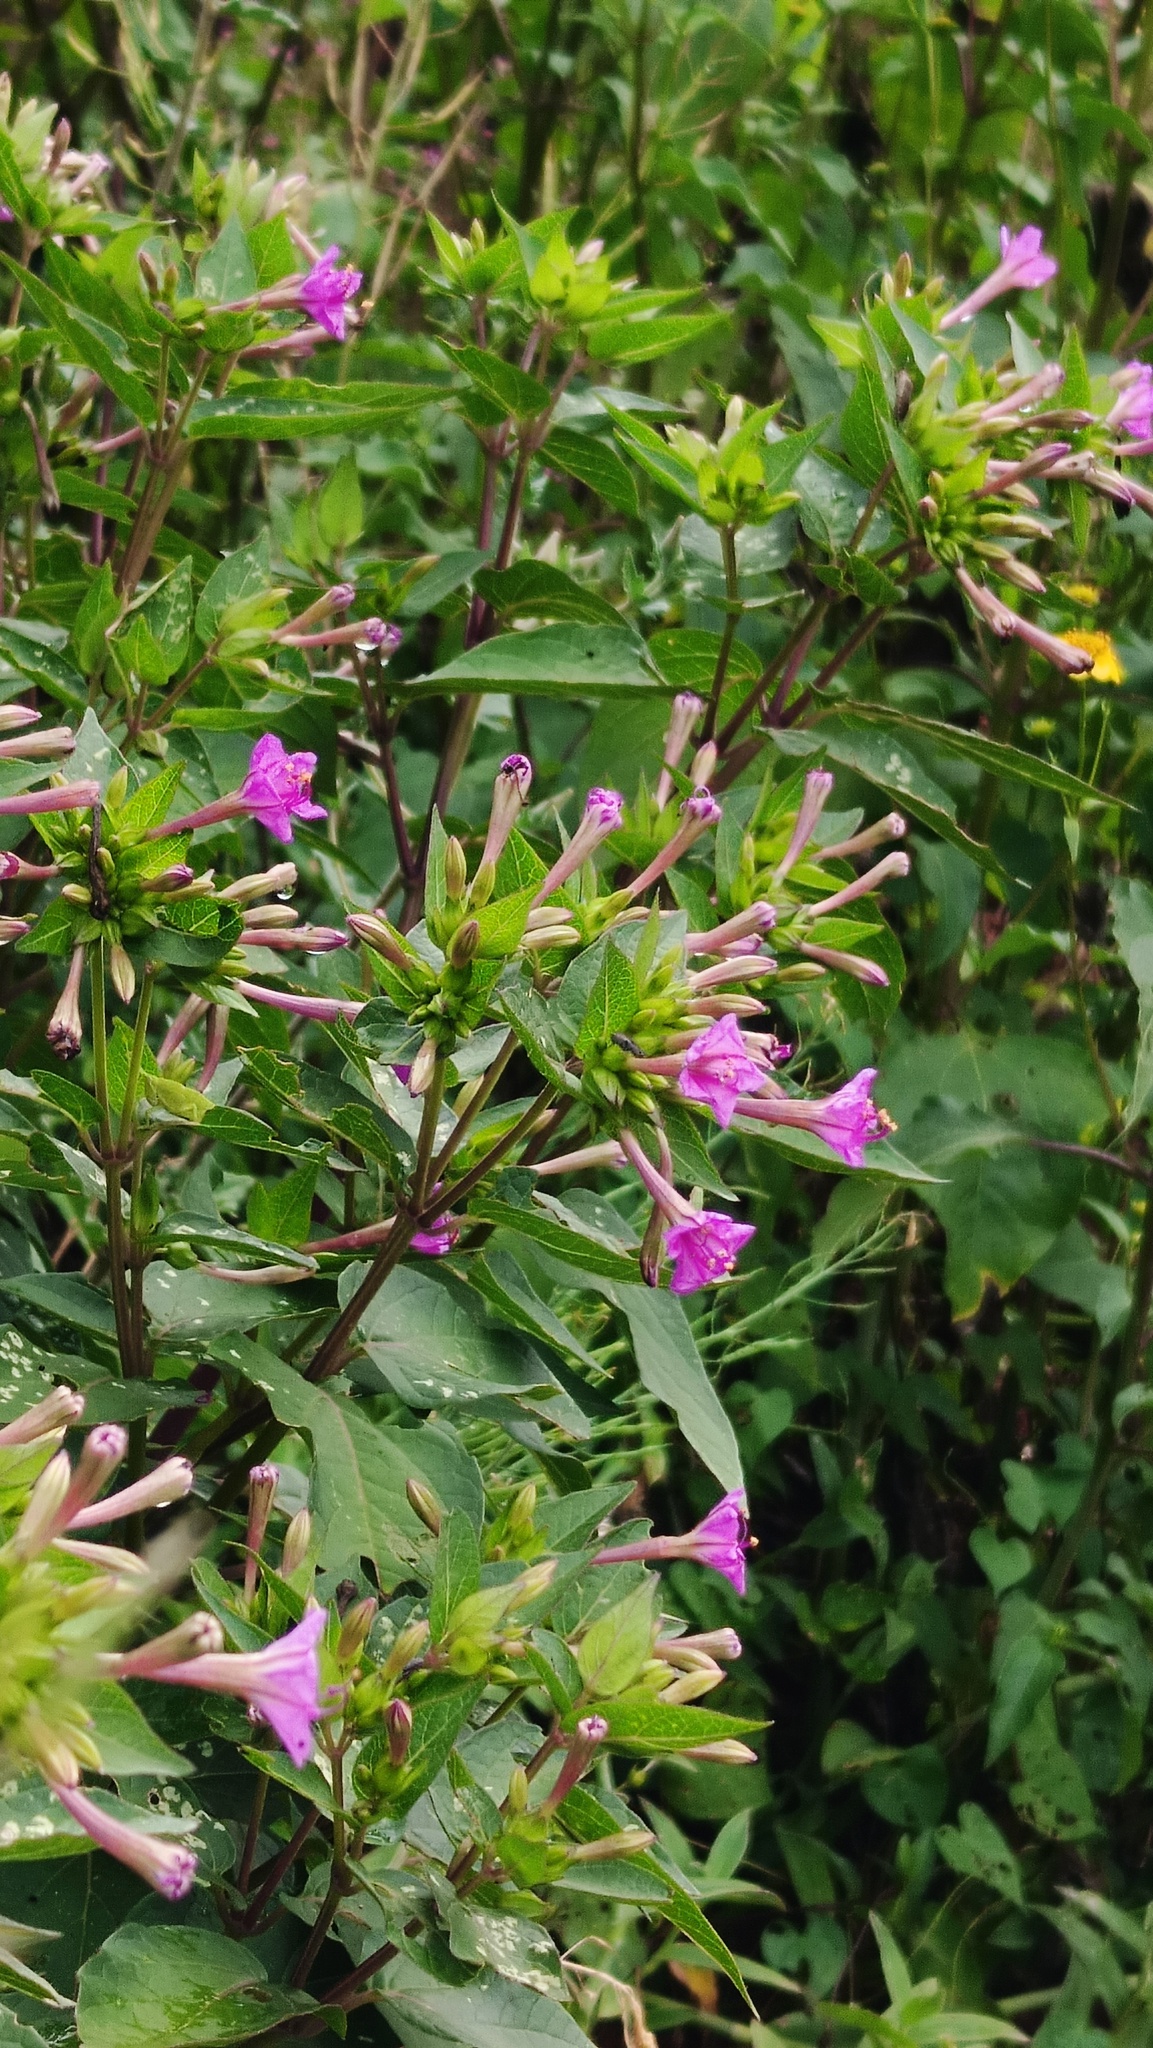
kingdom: Plantae
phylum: Tracheophyta
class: Magnoliopsida
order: Caryophyllales
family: Nyctaginaceae
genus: Mirabilis
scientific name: Mirabilis jalapa
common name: Marvel-of-peru
